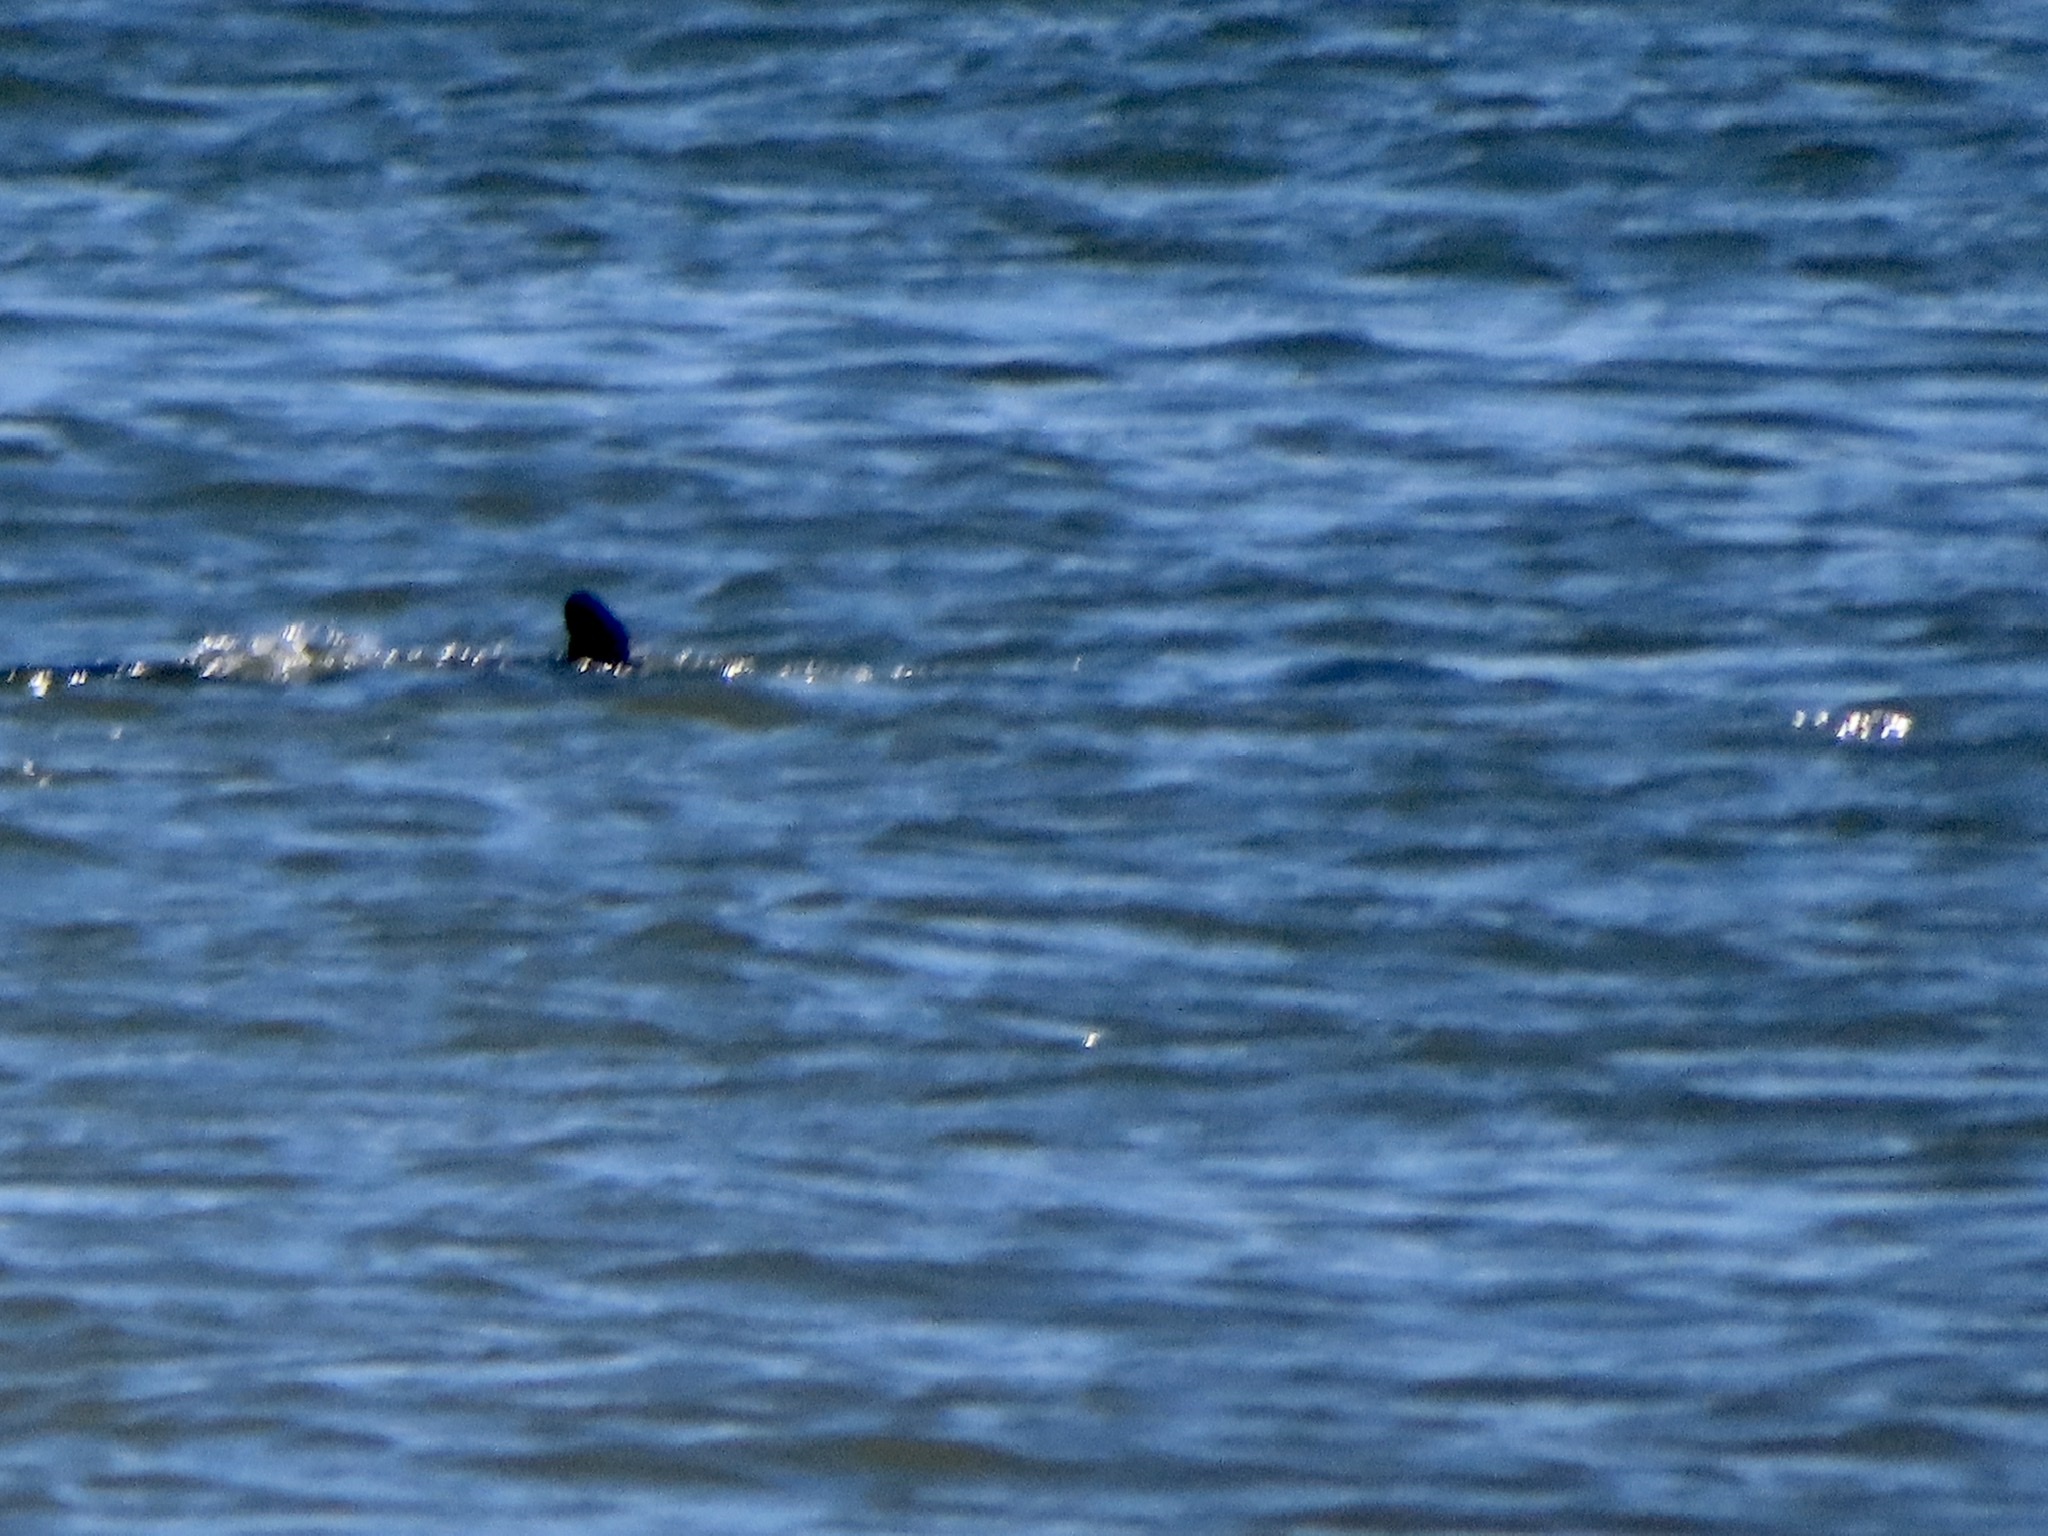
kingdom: Animalia
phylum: Chordata
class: Mammalia
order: Cetacea
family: Delphinidae
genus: Tursiops
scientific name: Tursiops truncatus
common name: Bottlenose dolphin
